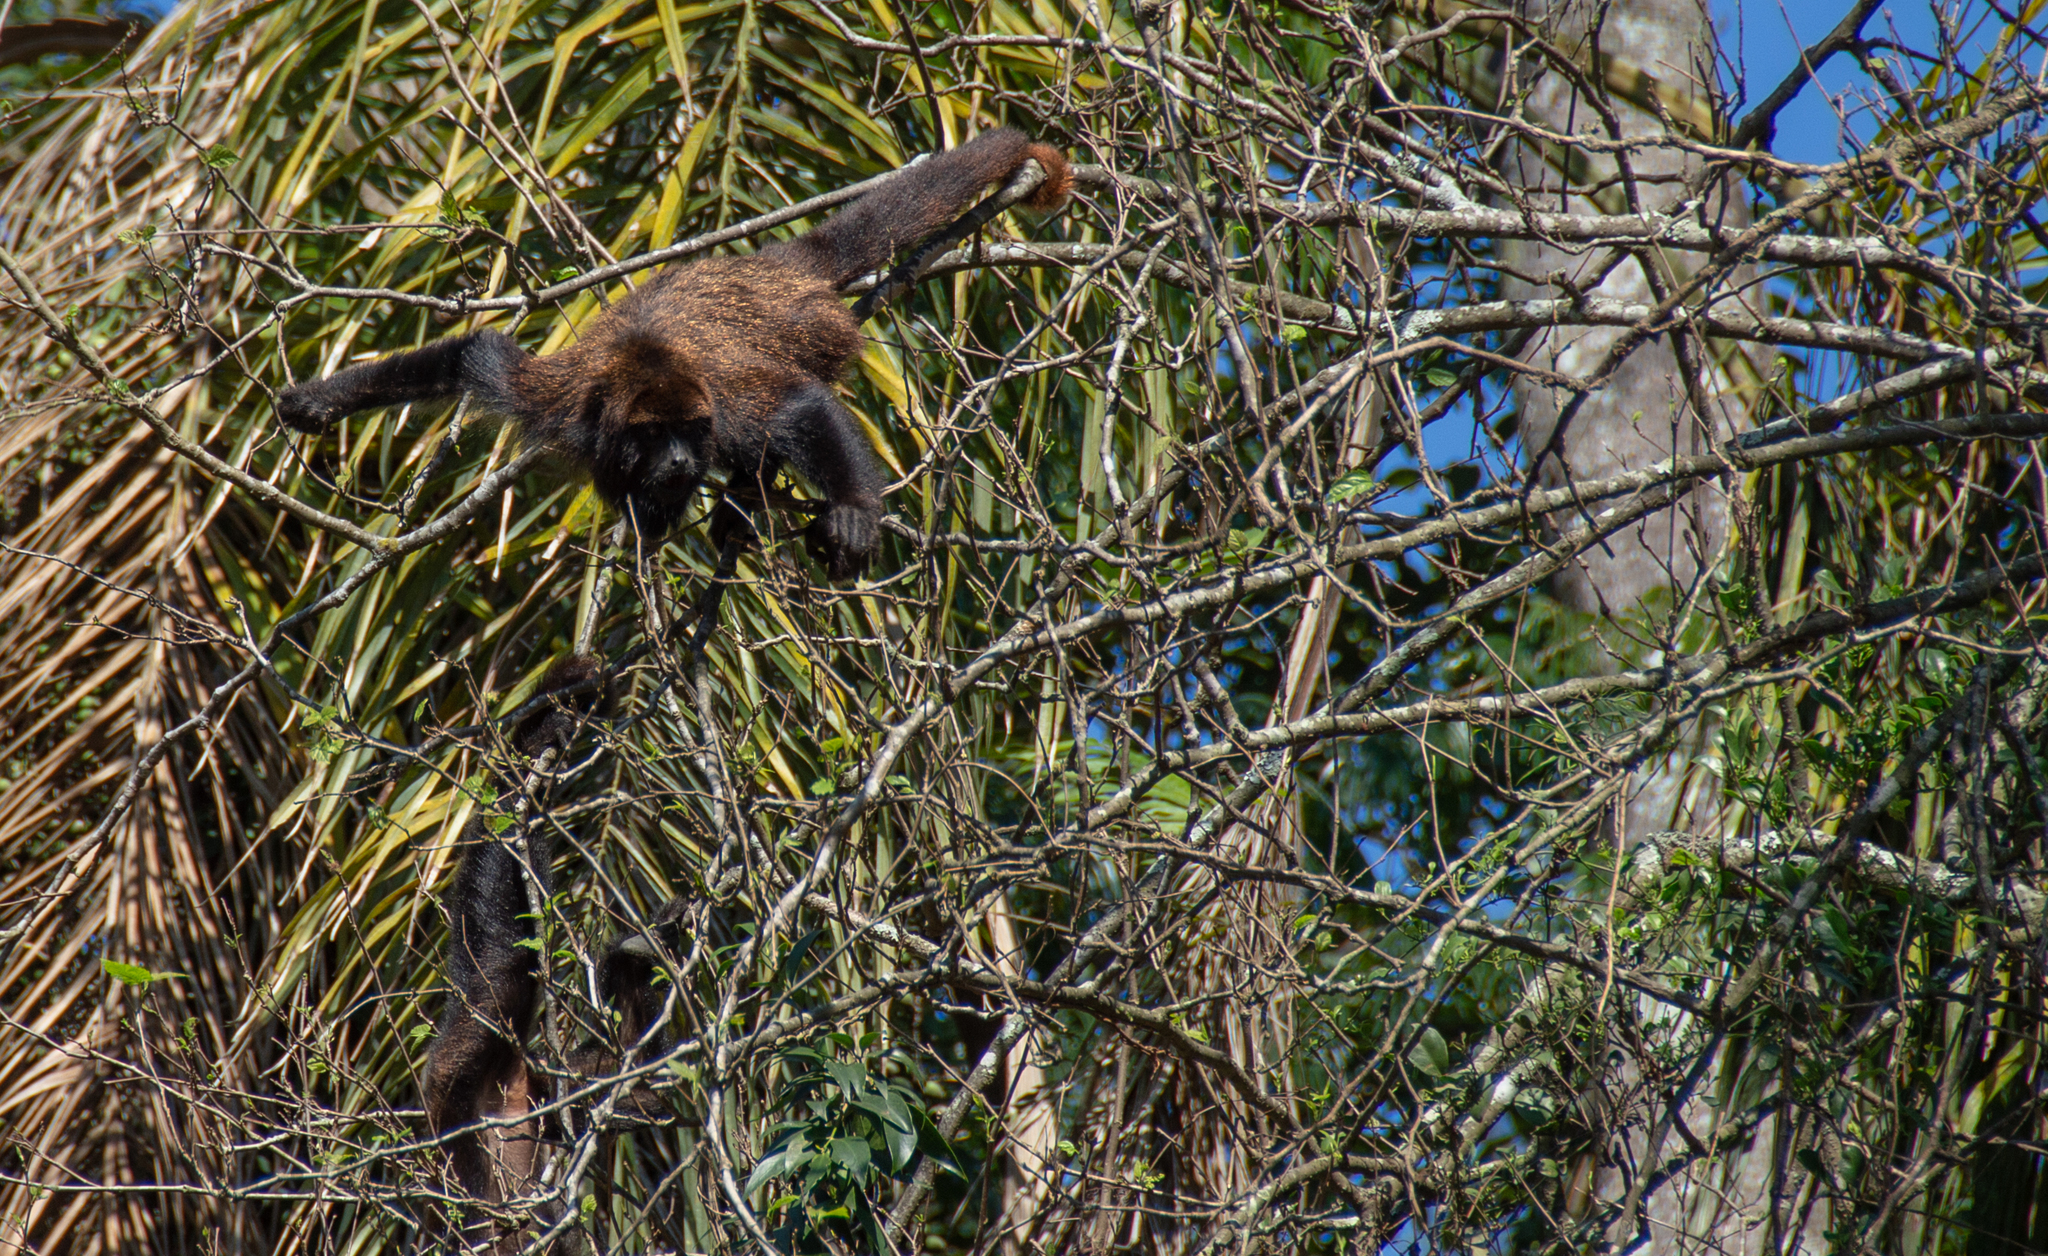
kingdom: Animalia
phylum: Chordata
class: Mammalia
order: Primates
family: Atelidae
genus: Alouatta
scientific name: Alouatta guariba
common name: Brown howler monkey
